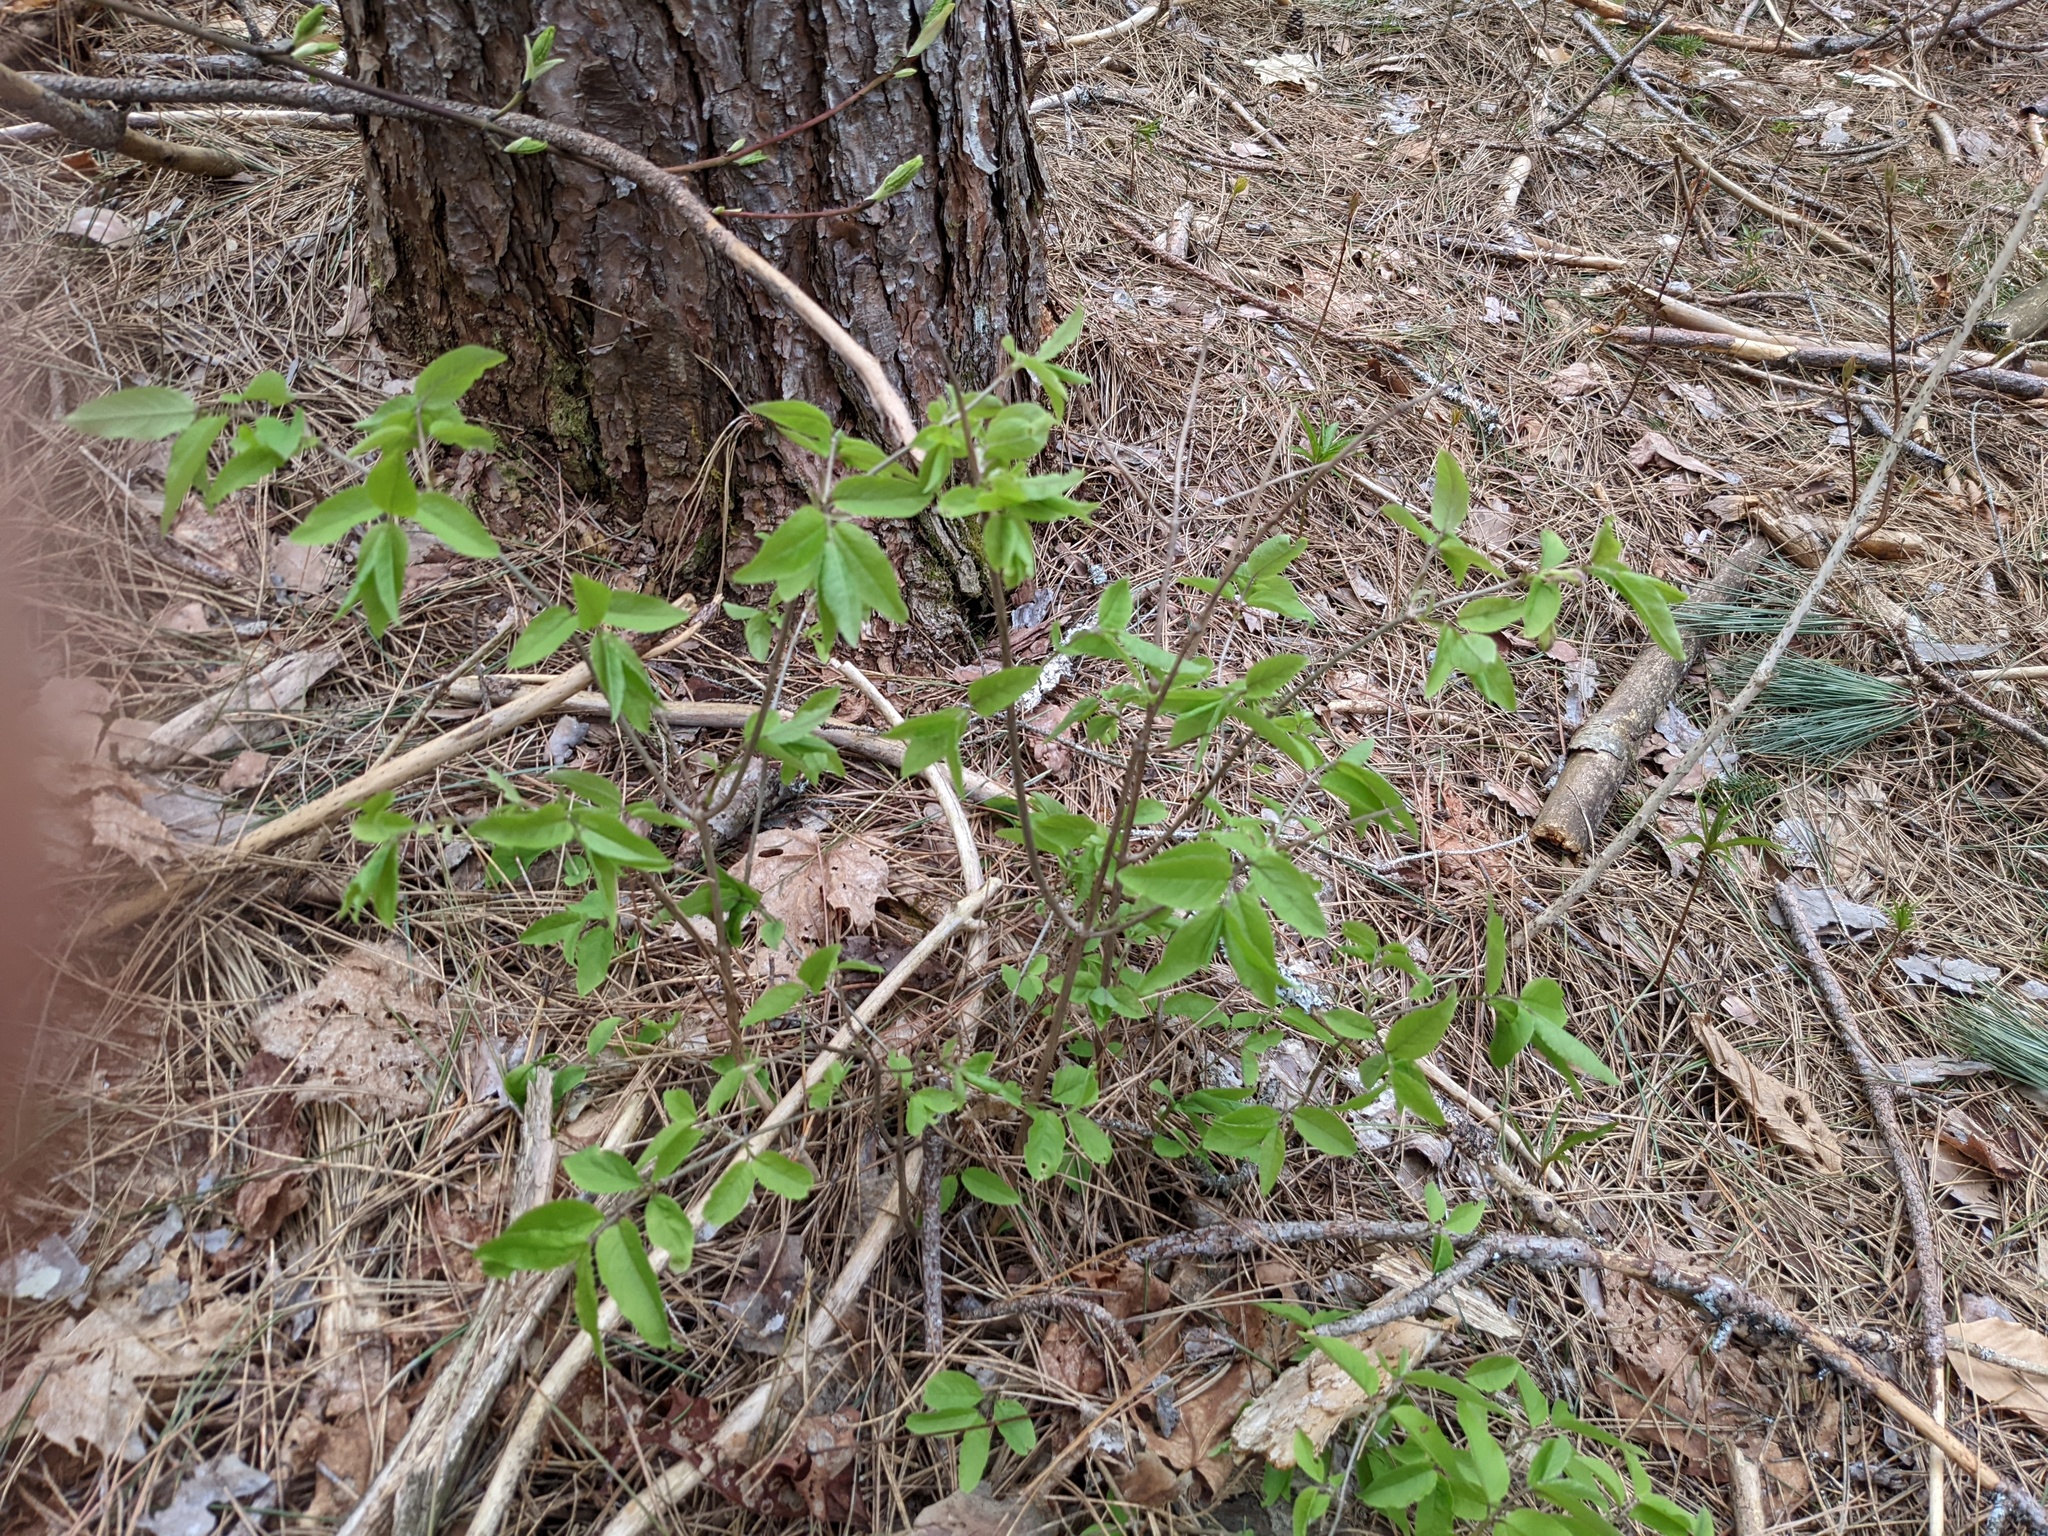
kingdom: Plantae
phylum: Tracheophyta
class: Magnoliopsida
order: Dipsacales
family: Caprifoliaceae
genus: Lonicera
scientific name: Lonicera canadensis
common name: American fly-honeysuckle
